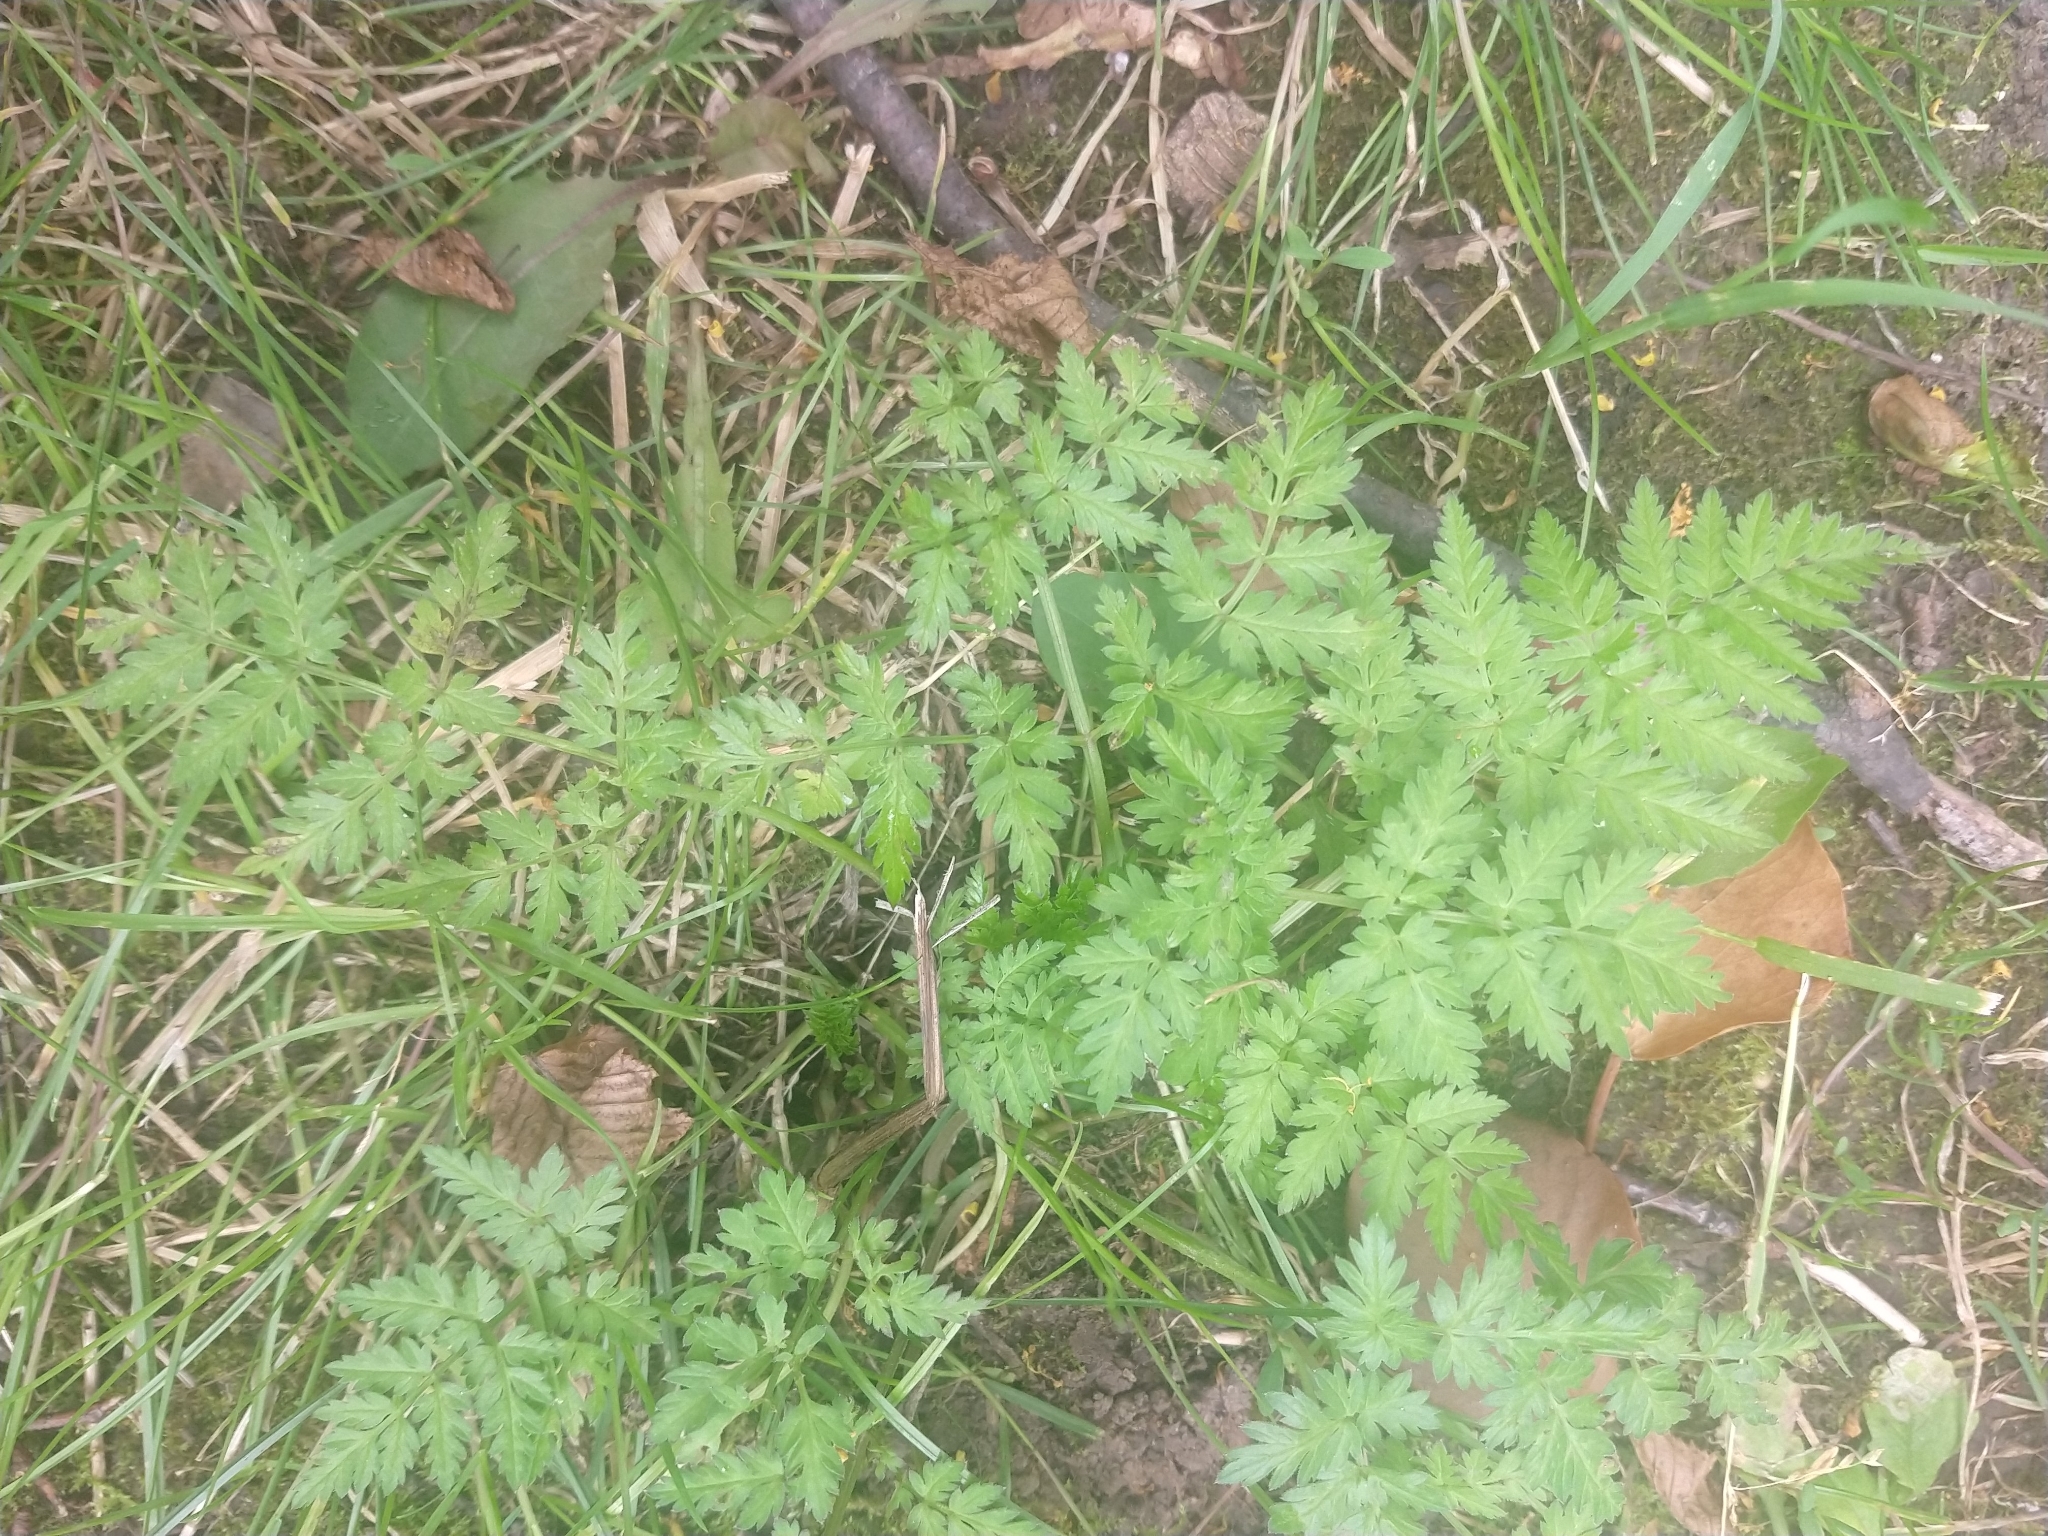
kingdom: Plantae
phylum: Tracheophyta
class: Magnoliopsida
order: Apiales
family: Apiaceae
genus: Anthriscus
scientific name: Anthriscus sylvestris
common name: Cow parsley
